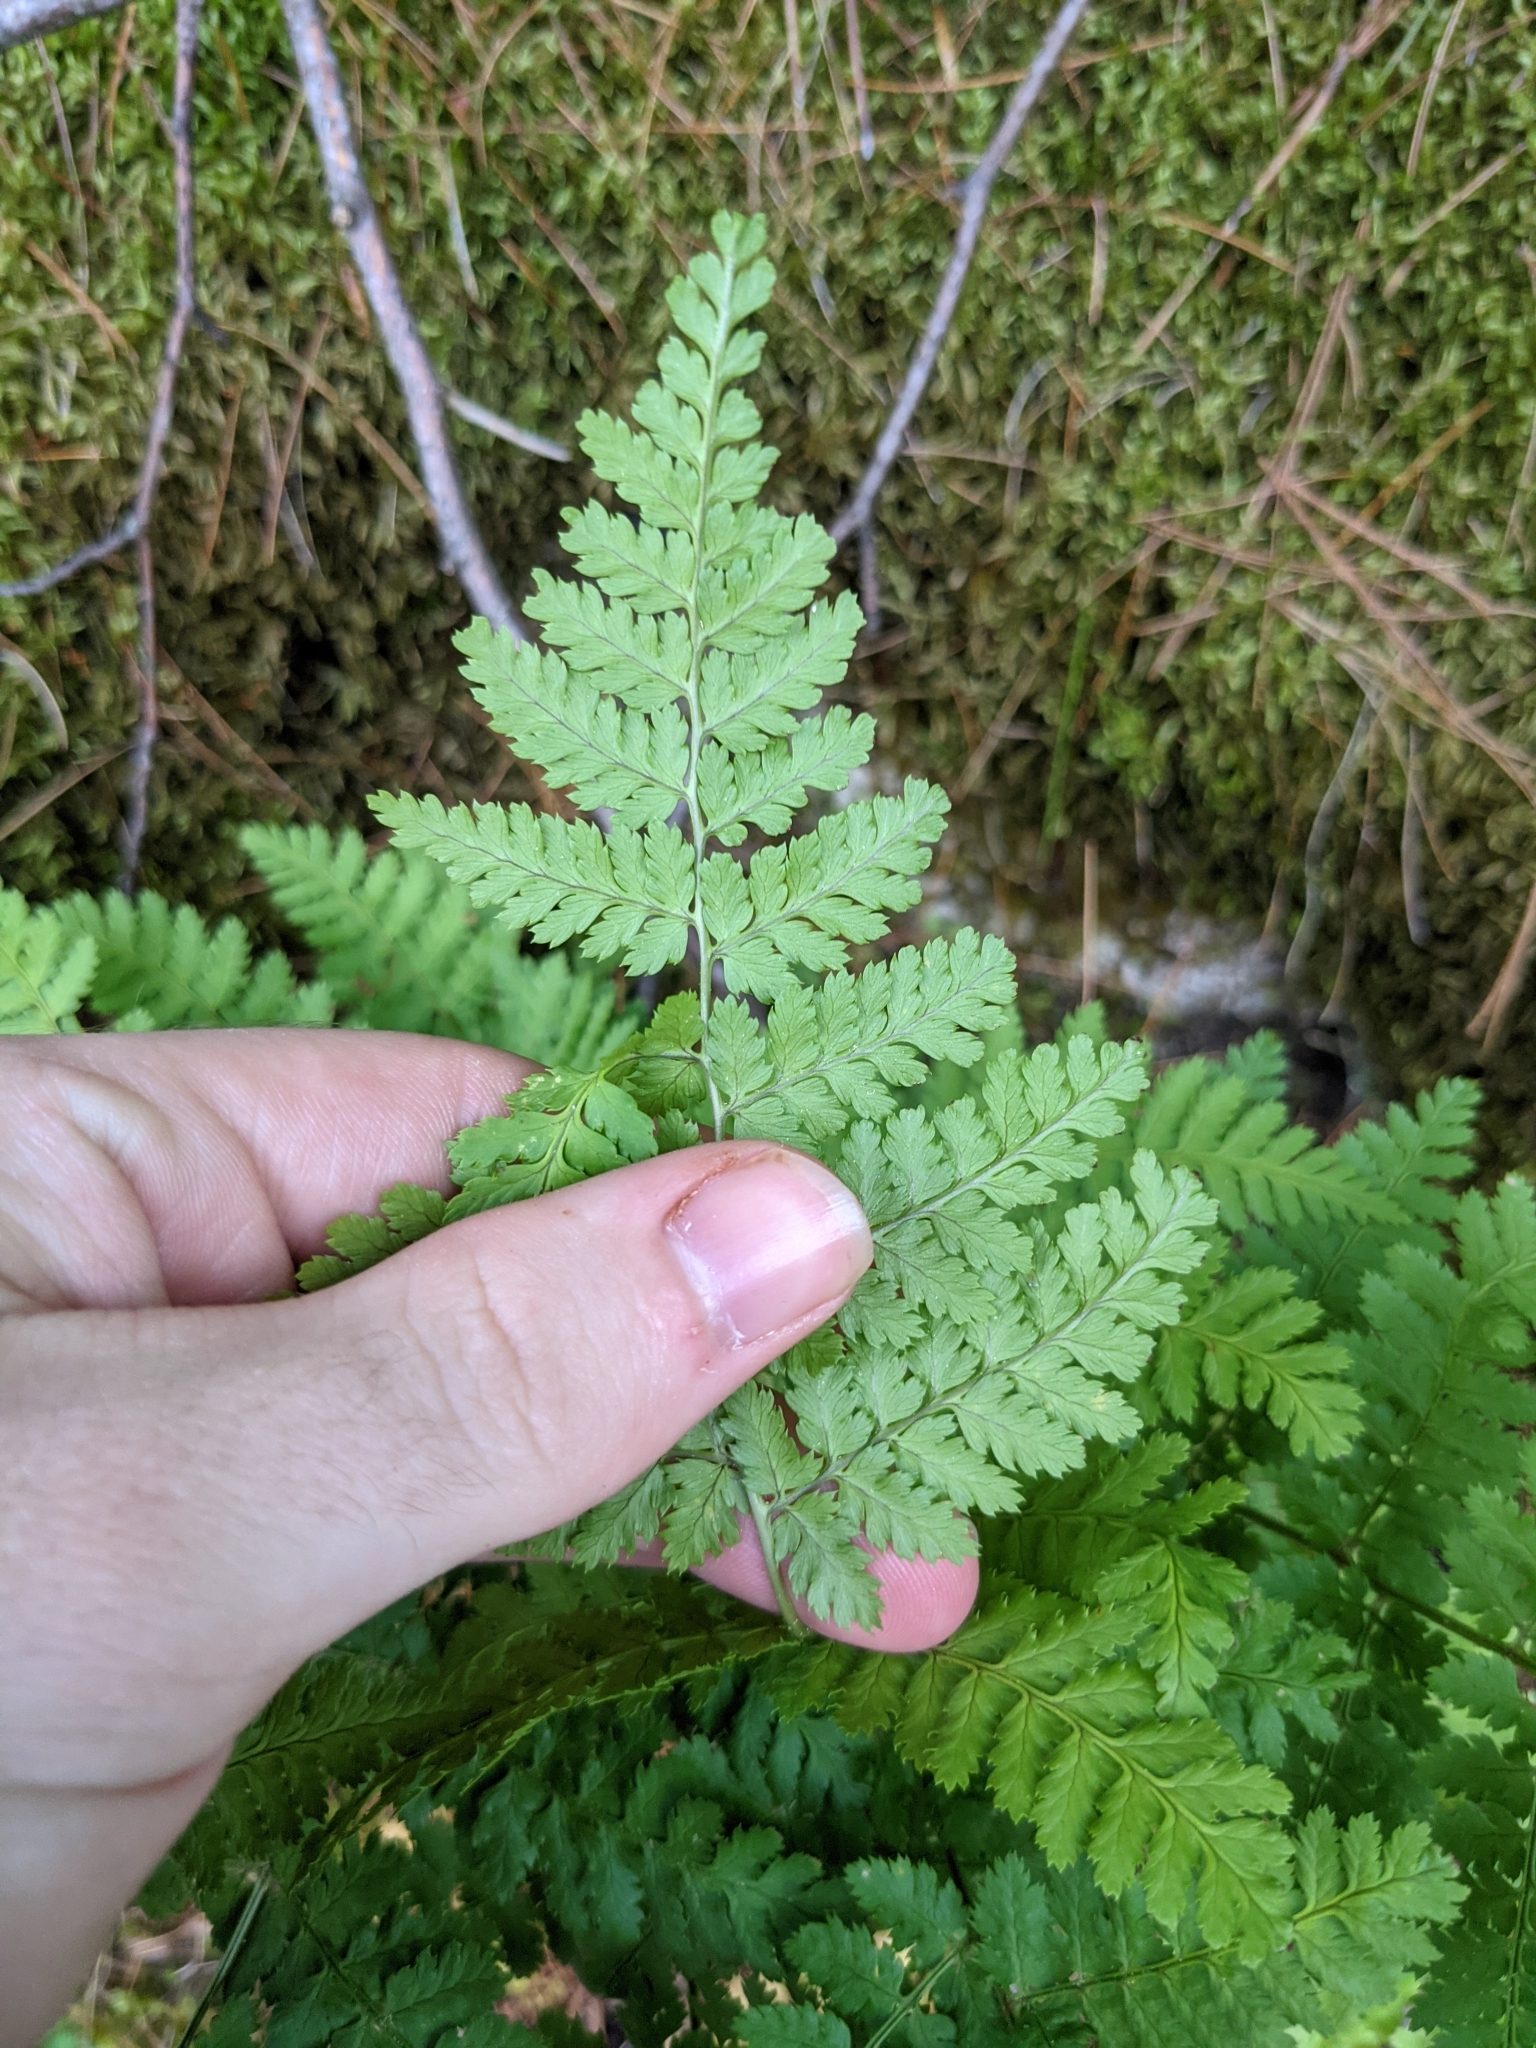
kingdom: Plantae
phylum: Tracheophyta
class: Polypodiopsida
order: Polypodiales
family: Dryopteridaceae
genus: Dryopteris
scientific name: Dryopteris intermedia
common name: Evergreen wood fern
